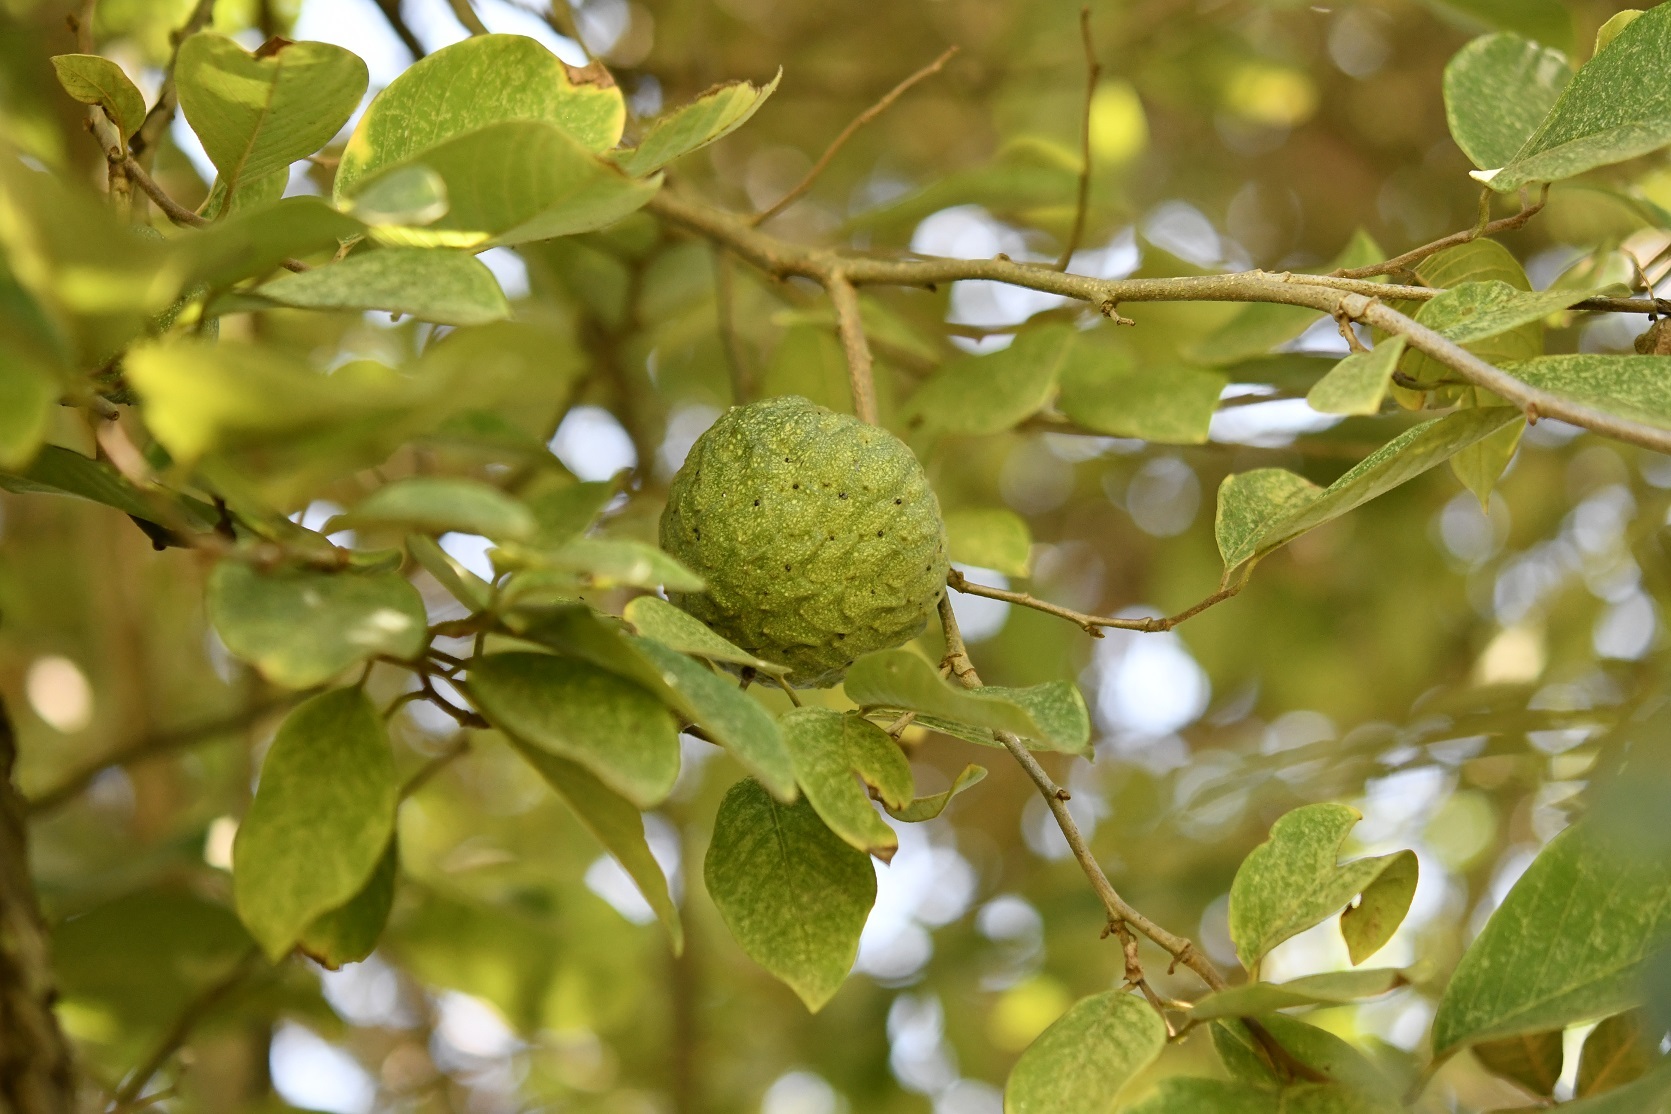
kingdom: Plantae
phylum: Tracheophyta
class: Magnoliopsida
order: Magnoliales
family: Annonaceae
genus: Annona
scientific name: Annona cherimola
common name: Cherimoya
